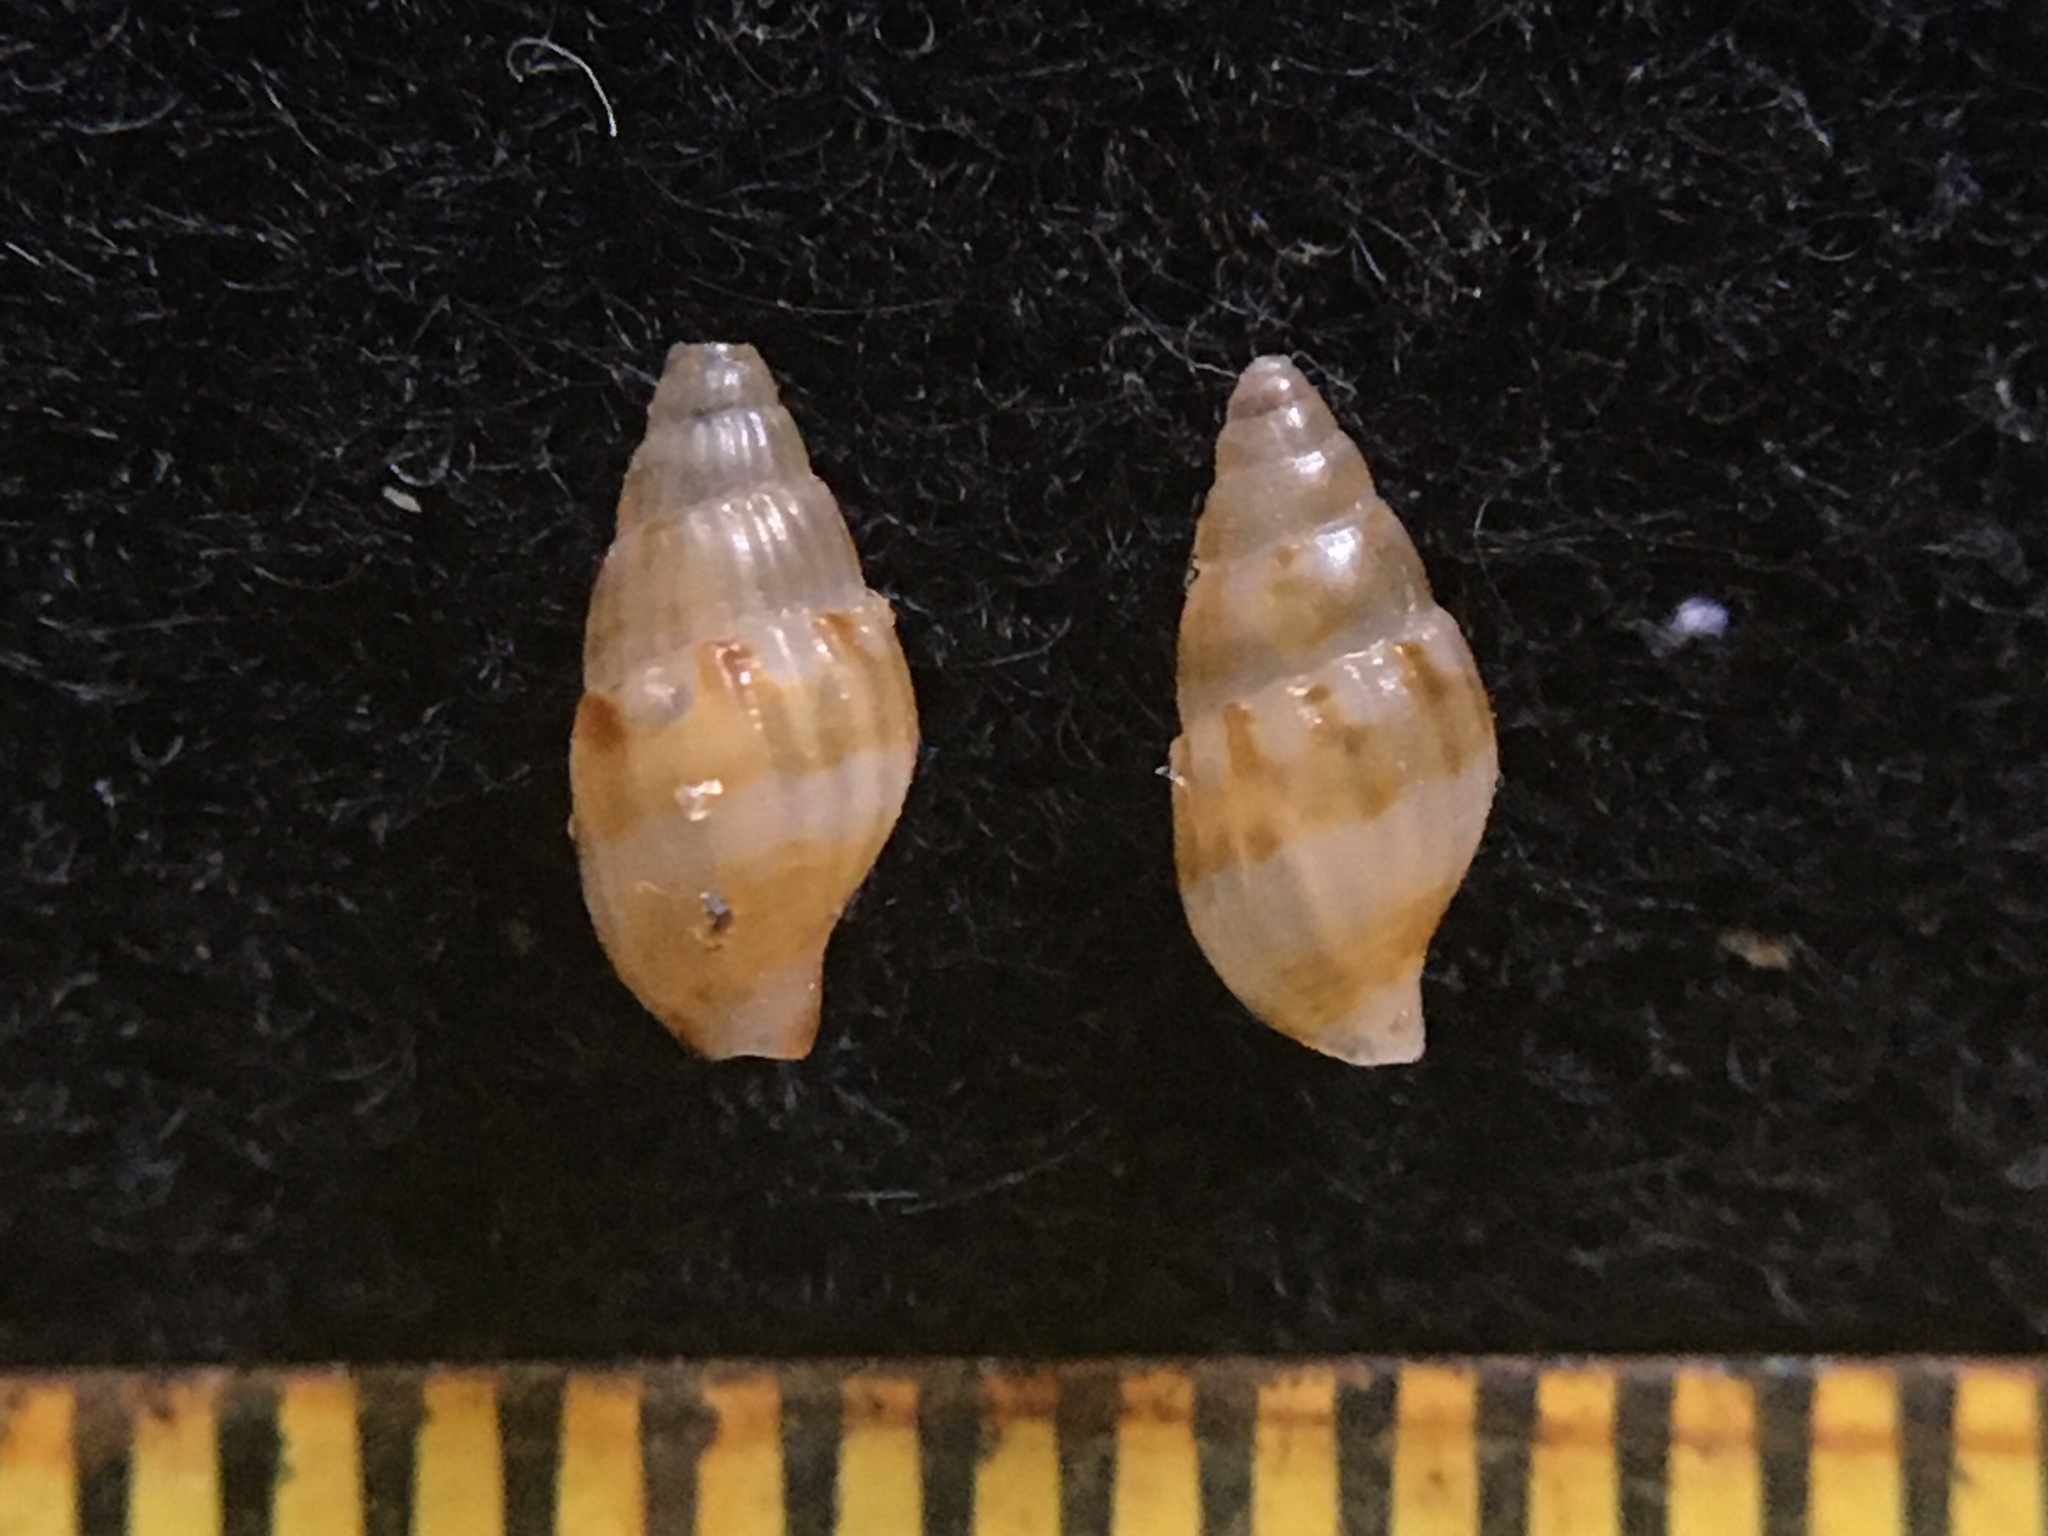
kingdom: Animalia
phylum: Mollusca
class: Gastropoda
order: Neogastropoda
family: Columbellidae
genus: Parvanachis
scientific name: Parvanachis paessleri
